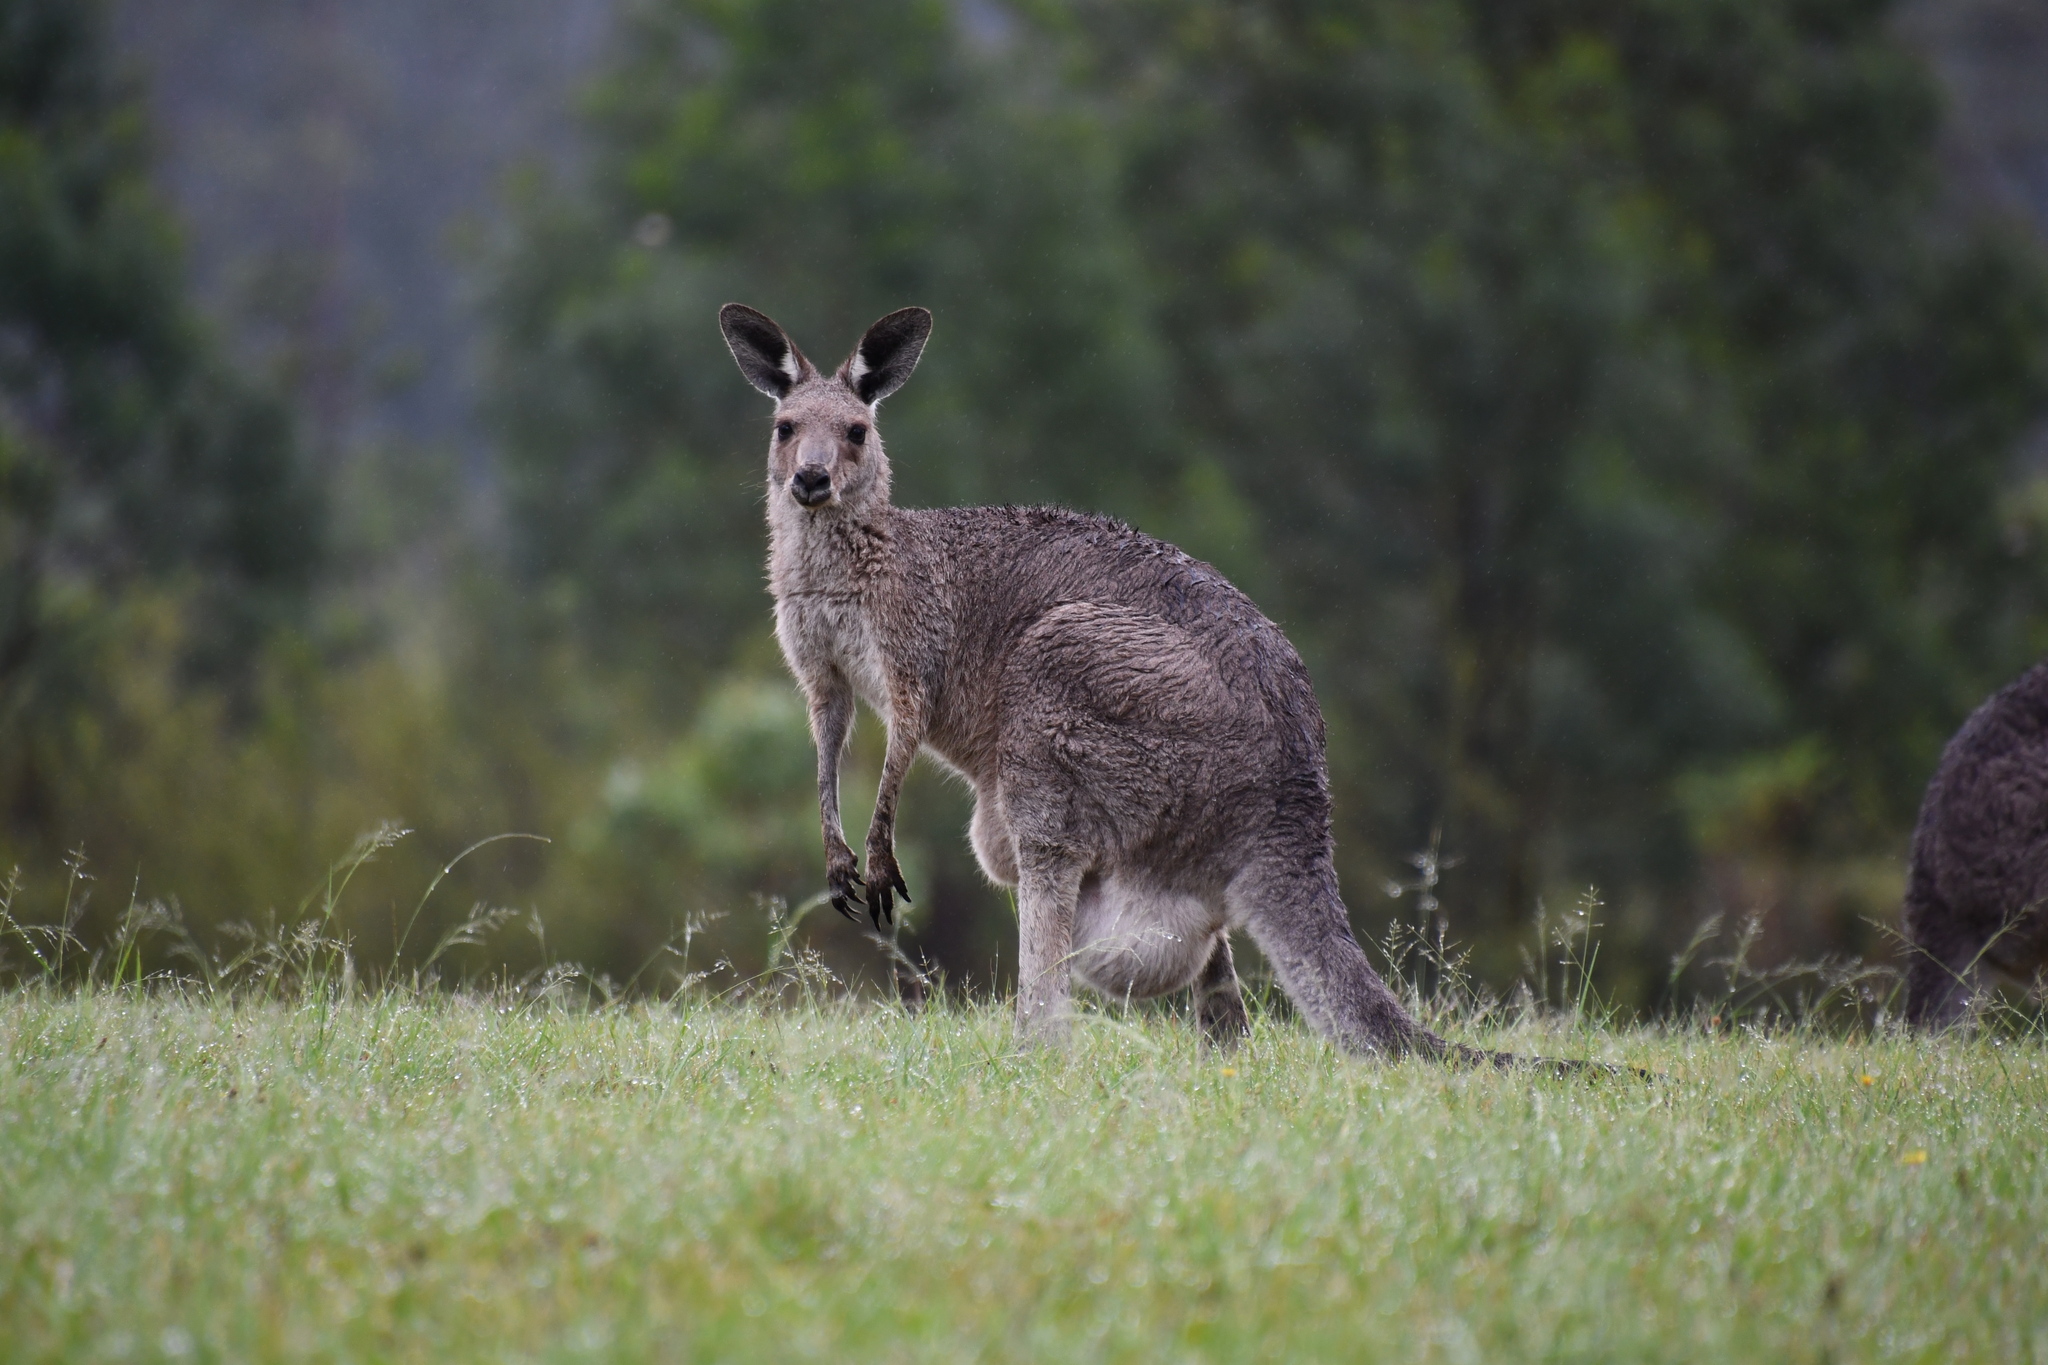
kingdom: Animalia
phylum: Chordata
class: Mammalia
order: Diprotodontia
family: Macropodidae
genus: Macropus
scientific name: Macropus giganteus
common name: Eastern grey kangaroo
